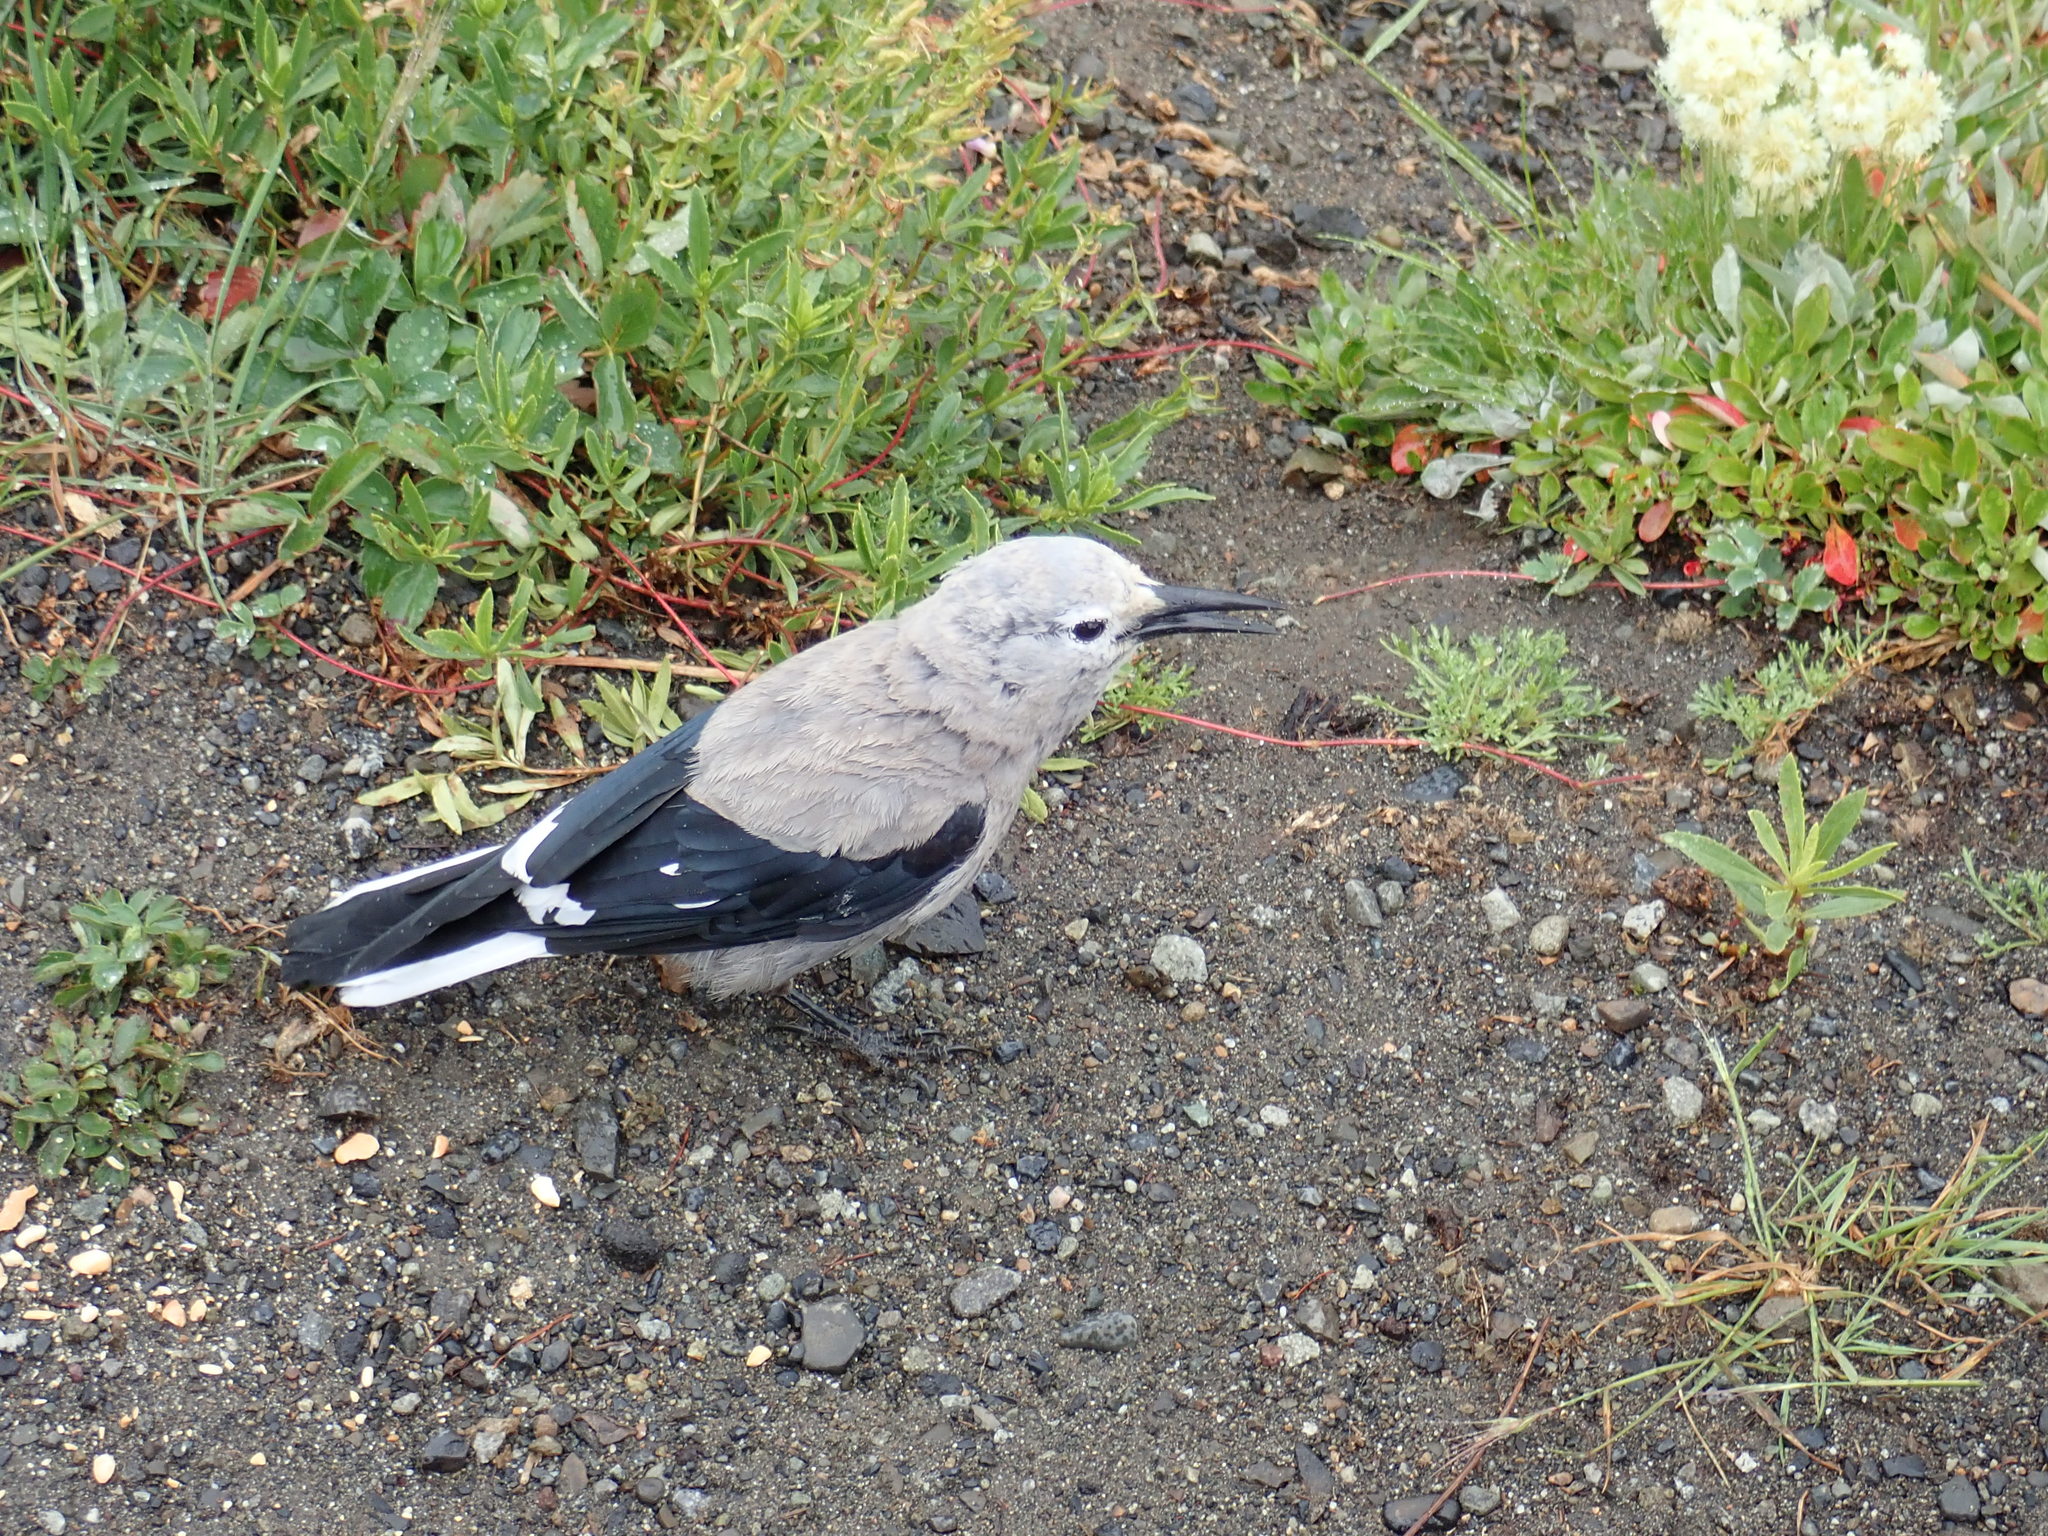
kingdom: Animalia
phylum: Chordata
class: Aves
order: Passeriformes
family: Corvidae
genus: Nucifraga
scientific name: Nucifraga columbiana
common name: Clark's nutcracker
